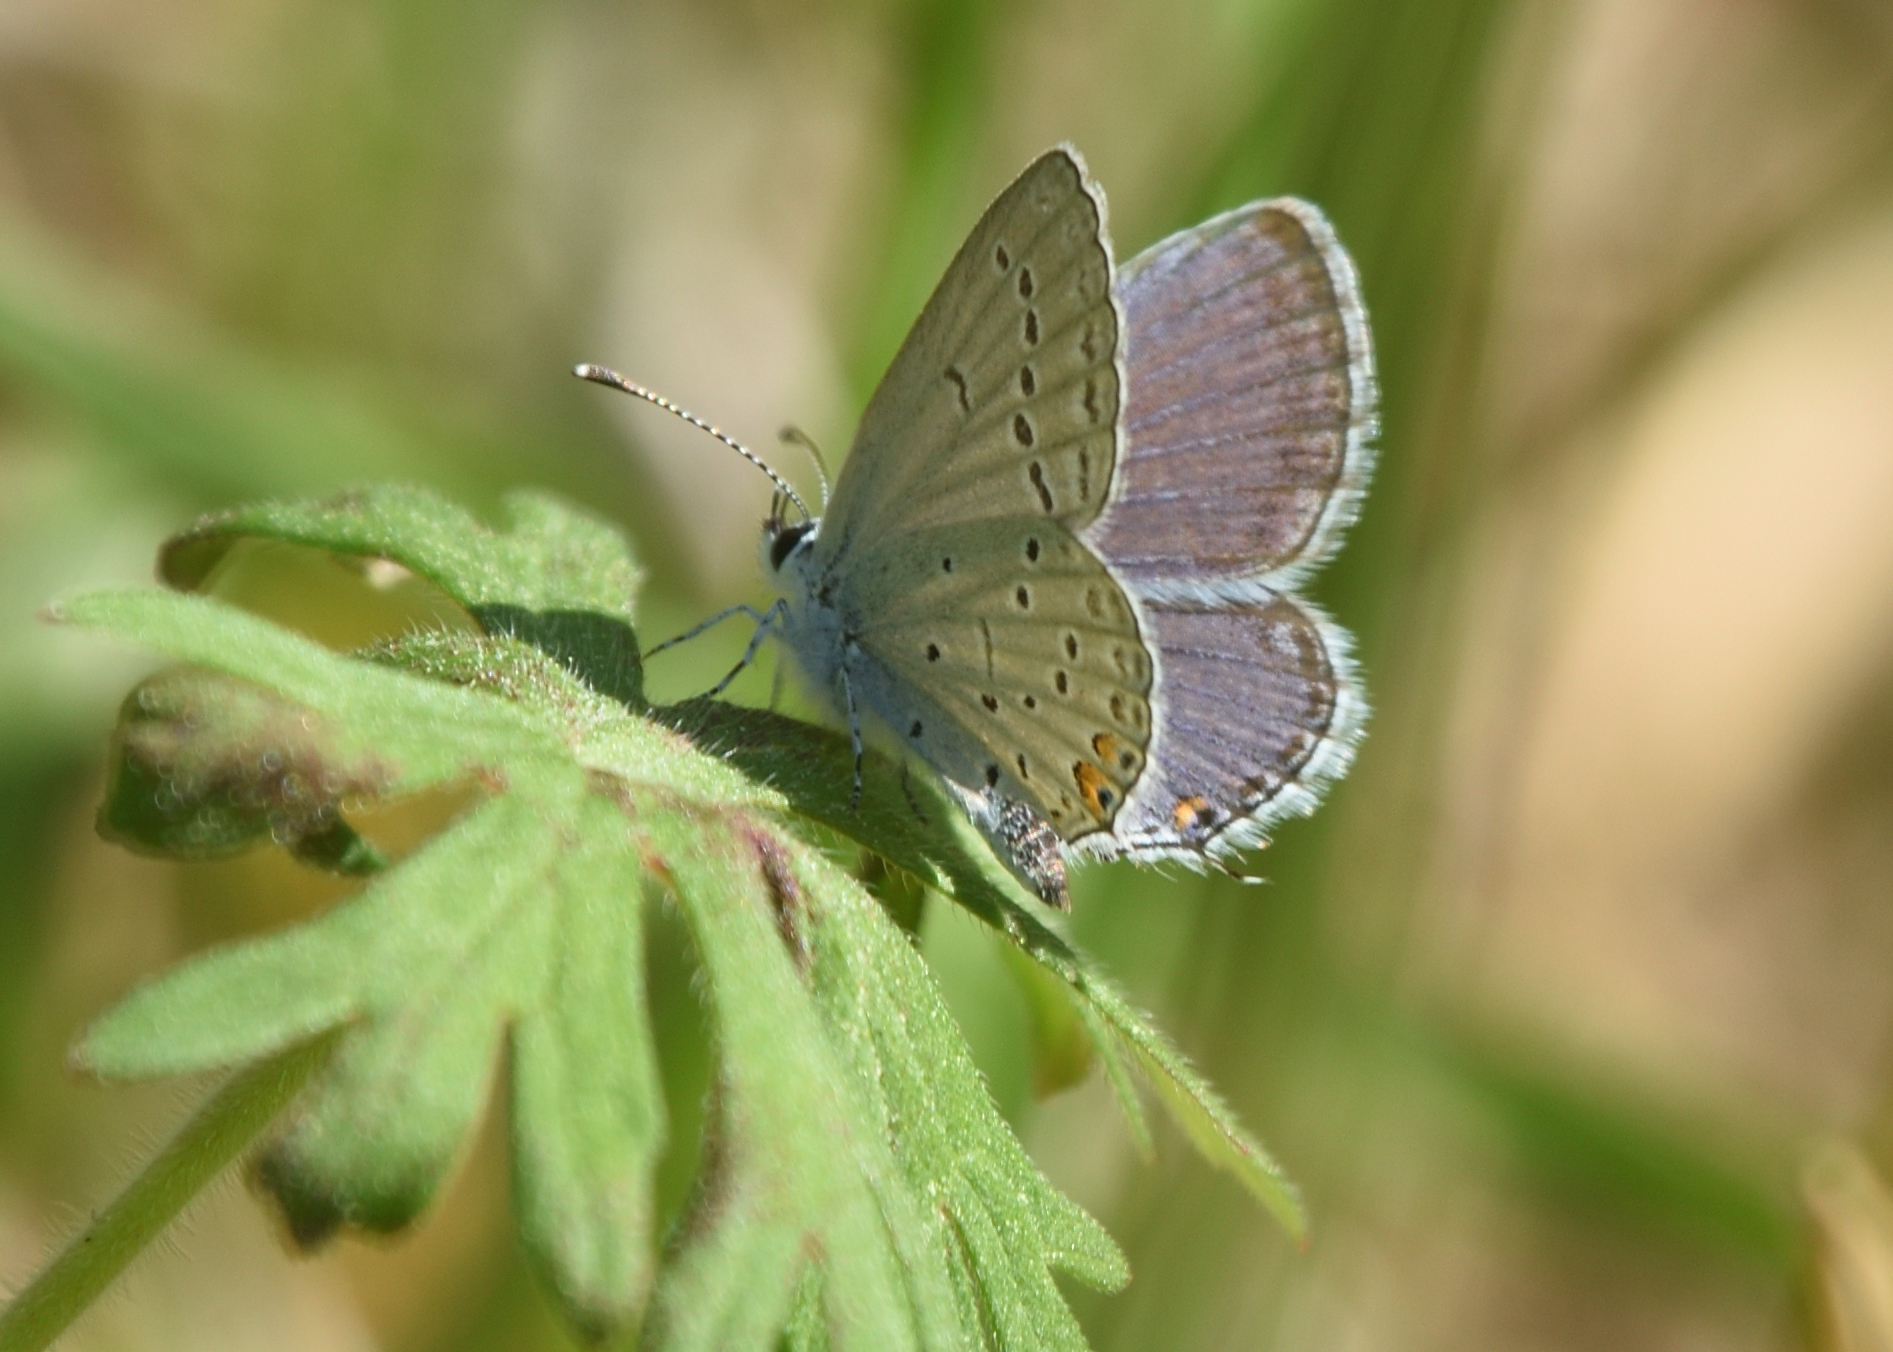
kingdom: Animalia
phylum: Arthropoda
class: Insecta
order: Lepidoptera
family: Lycaenidae
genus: Elkalyce
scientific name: Elkalyce comyntas
